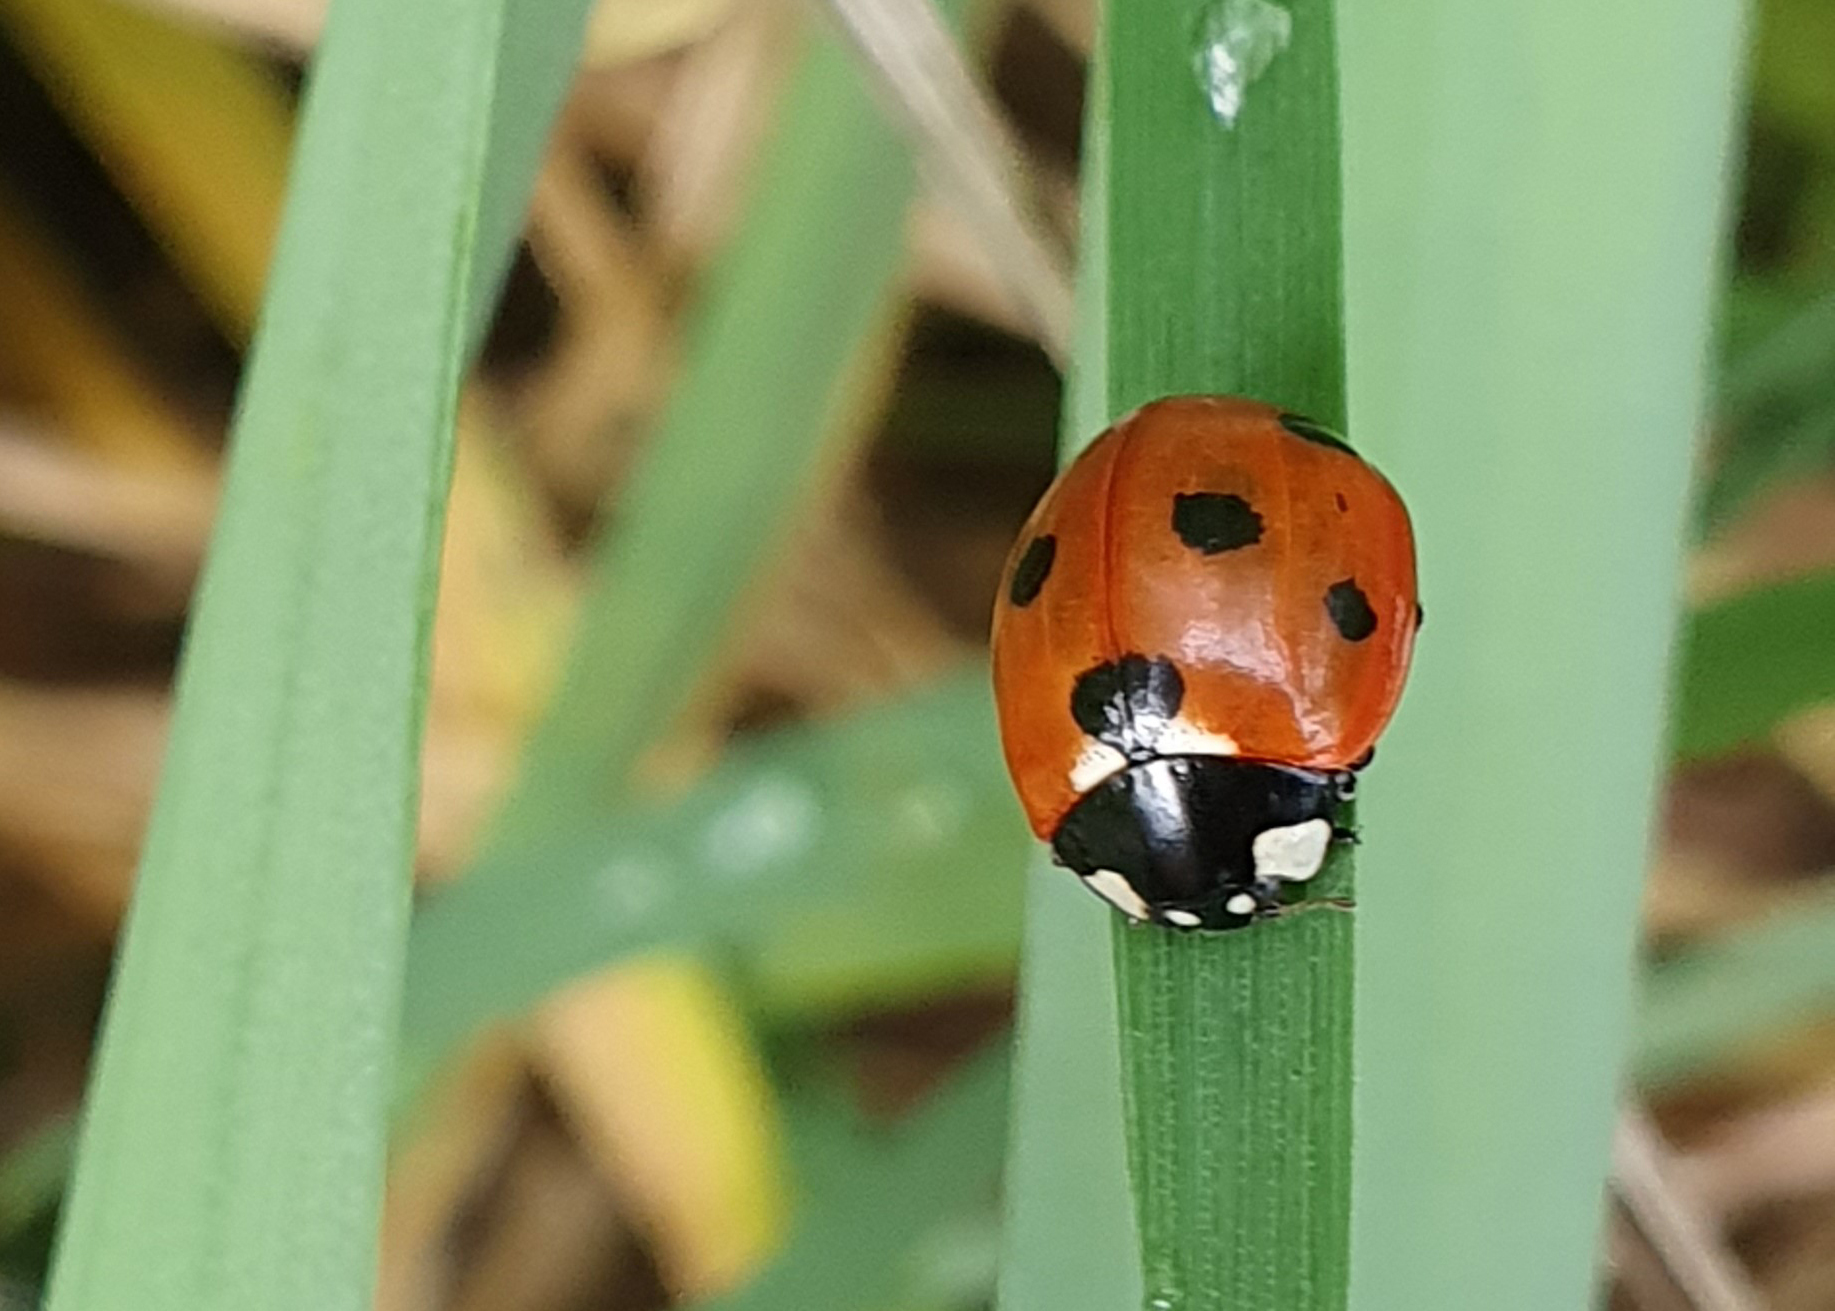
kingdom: Animalia
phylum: Arthropoda
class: Insecta
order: Coleoptera
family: Coccinellidae
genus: Coccinella
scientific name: Coccinella septempunctata
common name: Sevenspotted lady beetle
